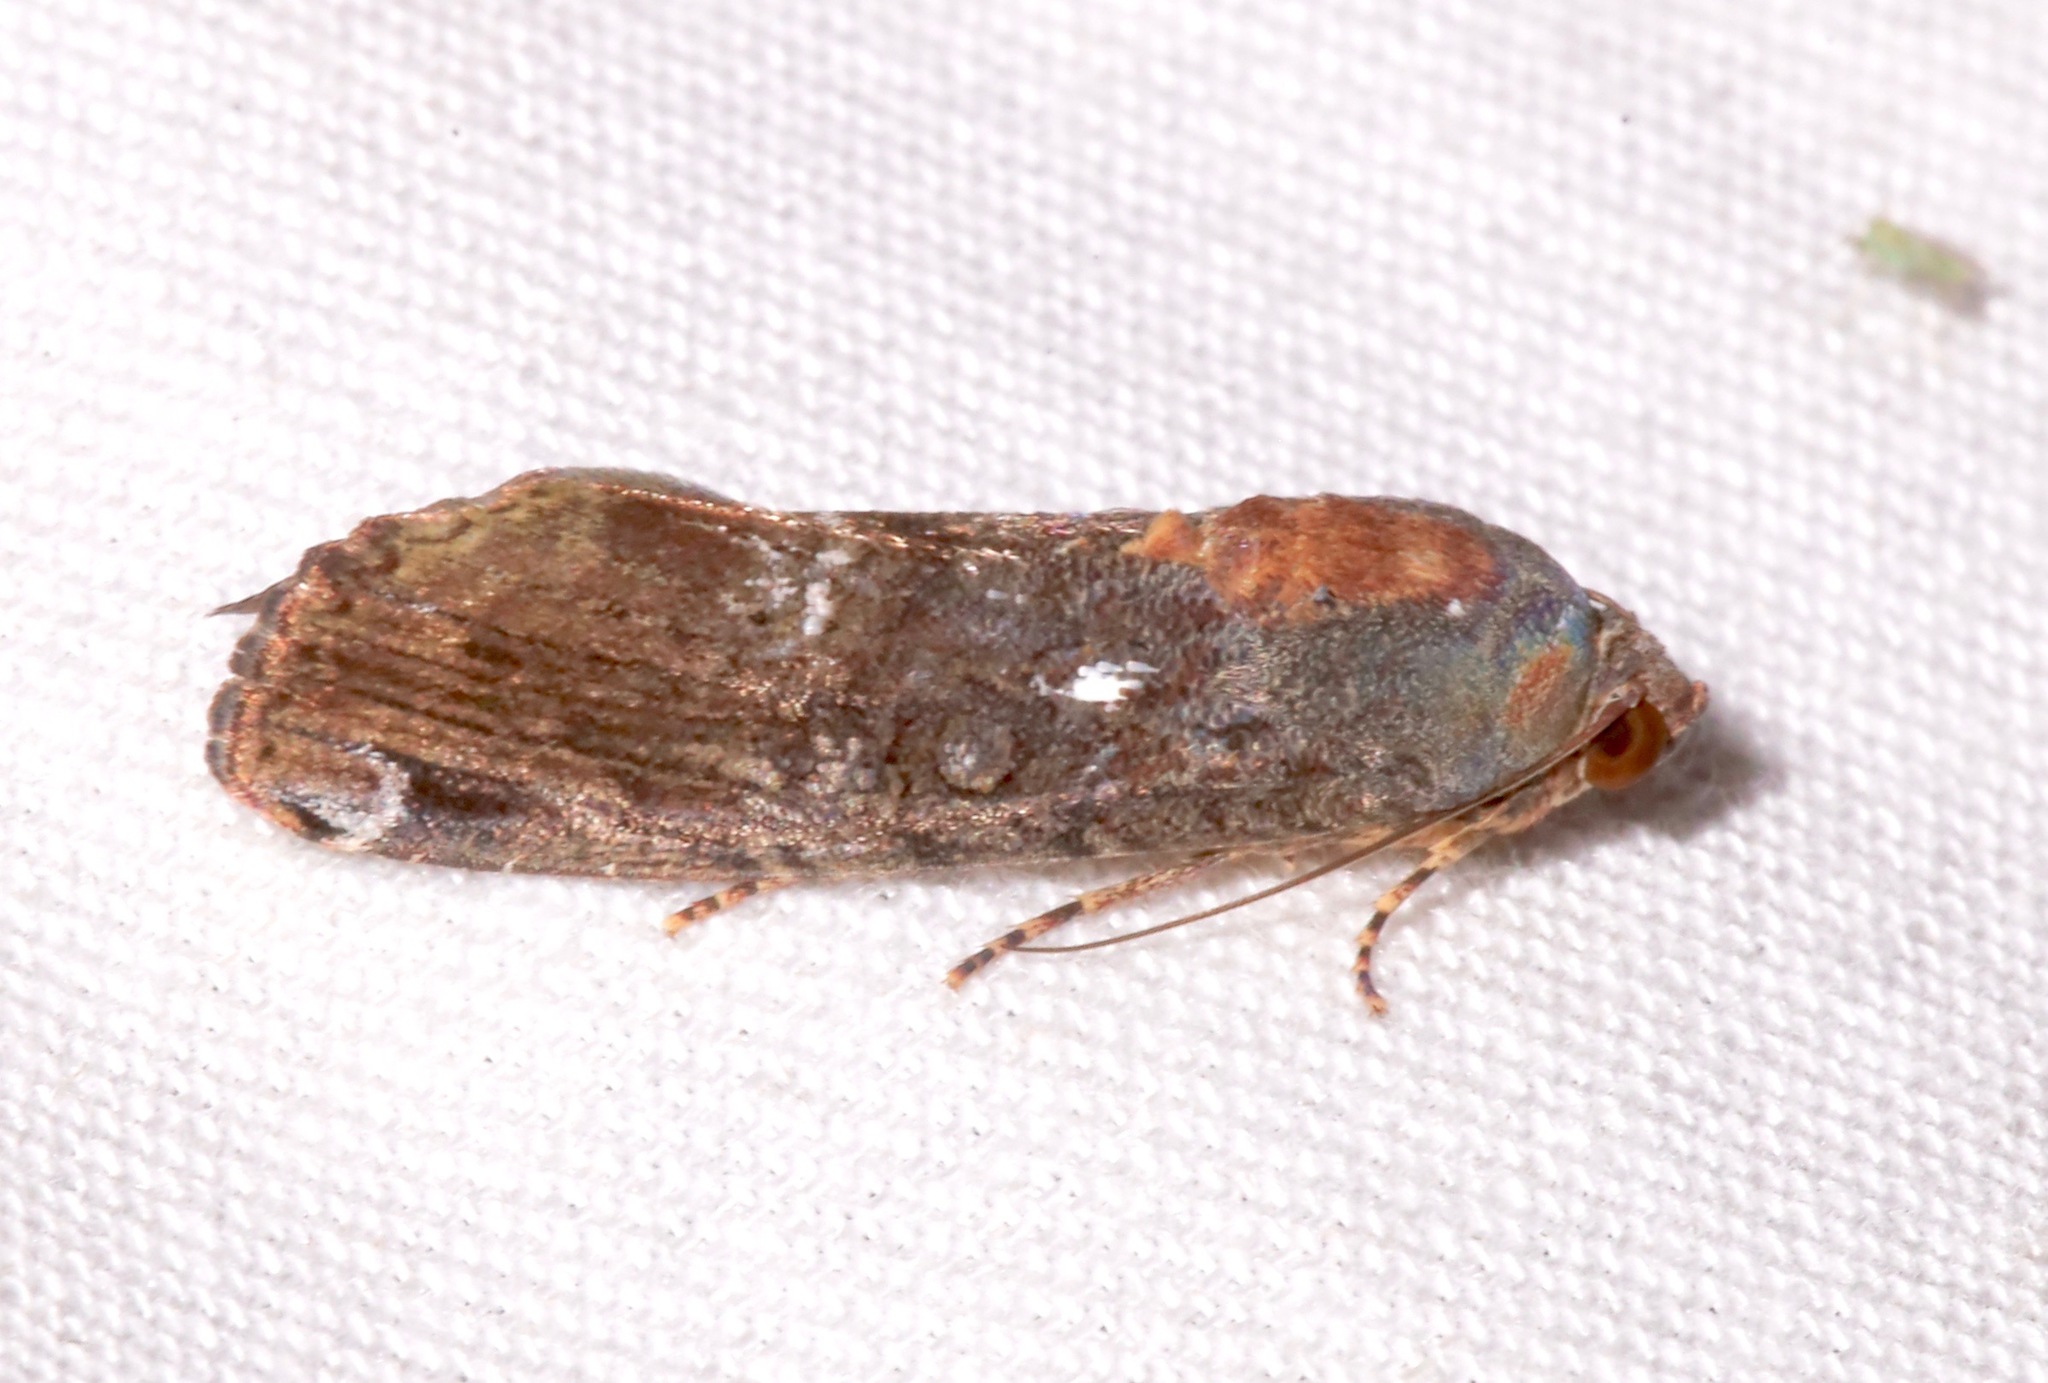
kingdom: Animalia
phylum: Arthropoda
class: Insecta
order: Lepidoptera
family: Noctuidae
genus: Magusa
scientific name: Magusa divaricata
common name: Orb narrow-winged moth
